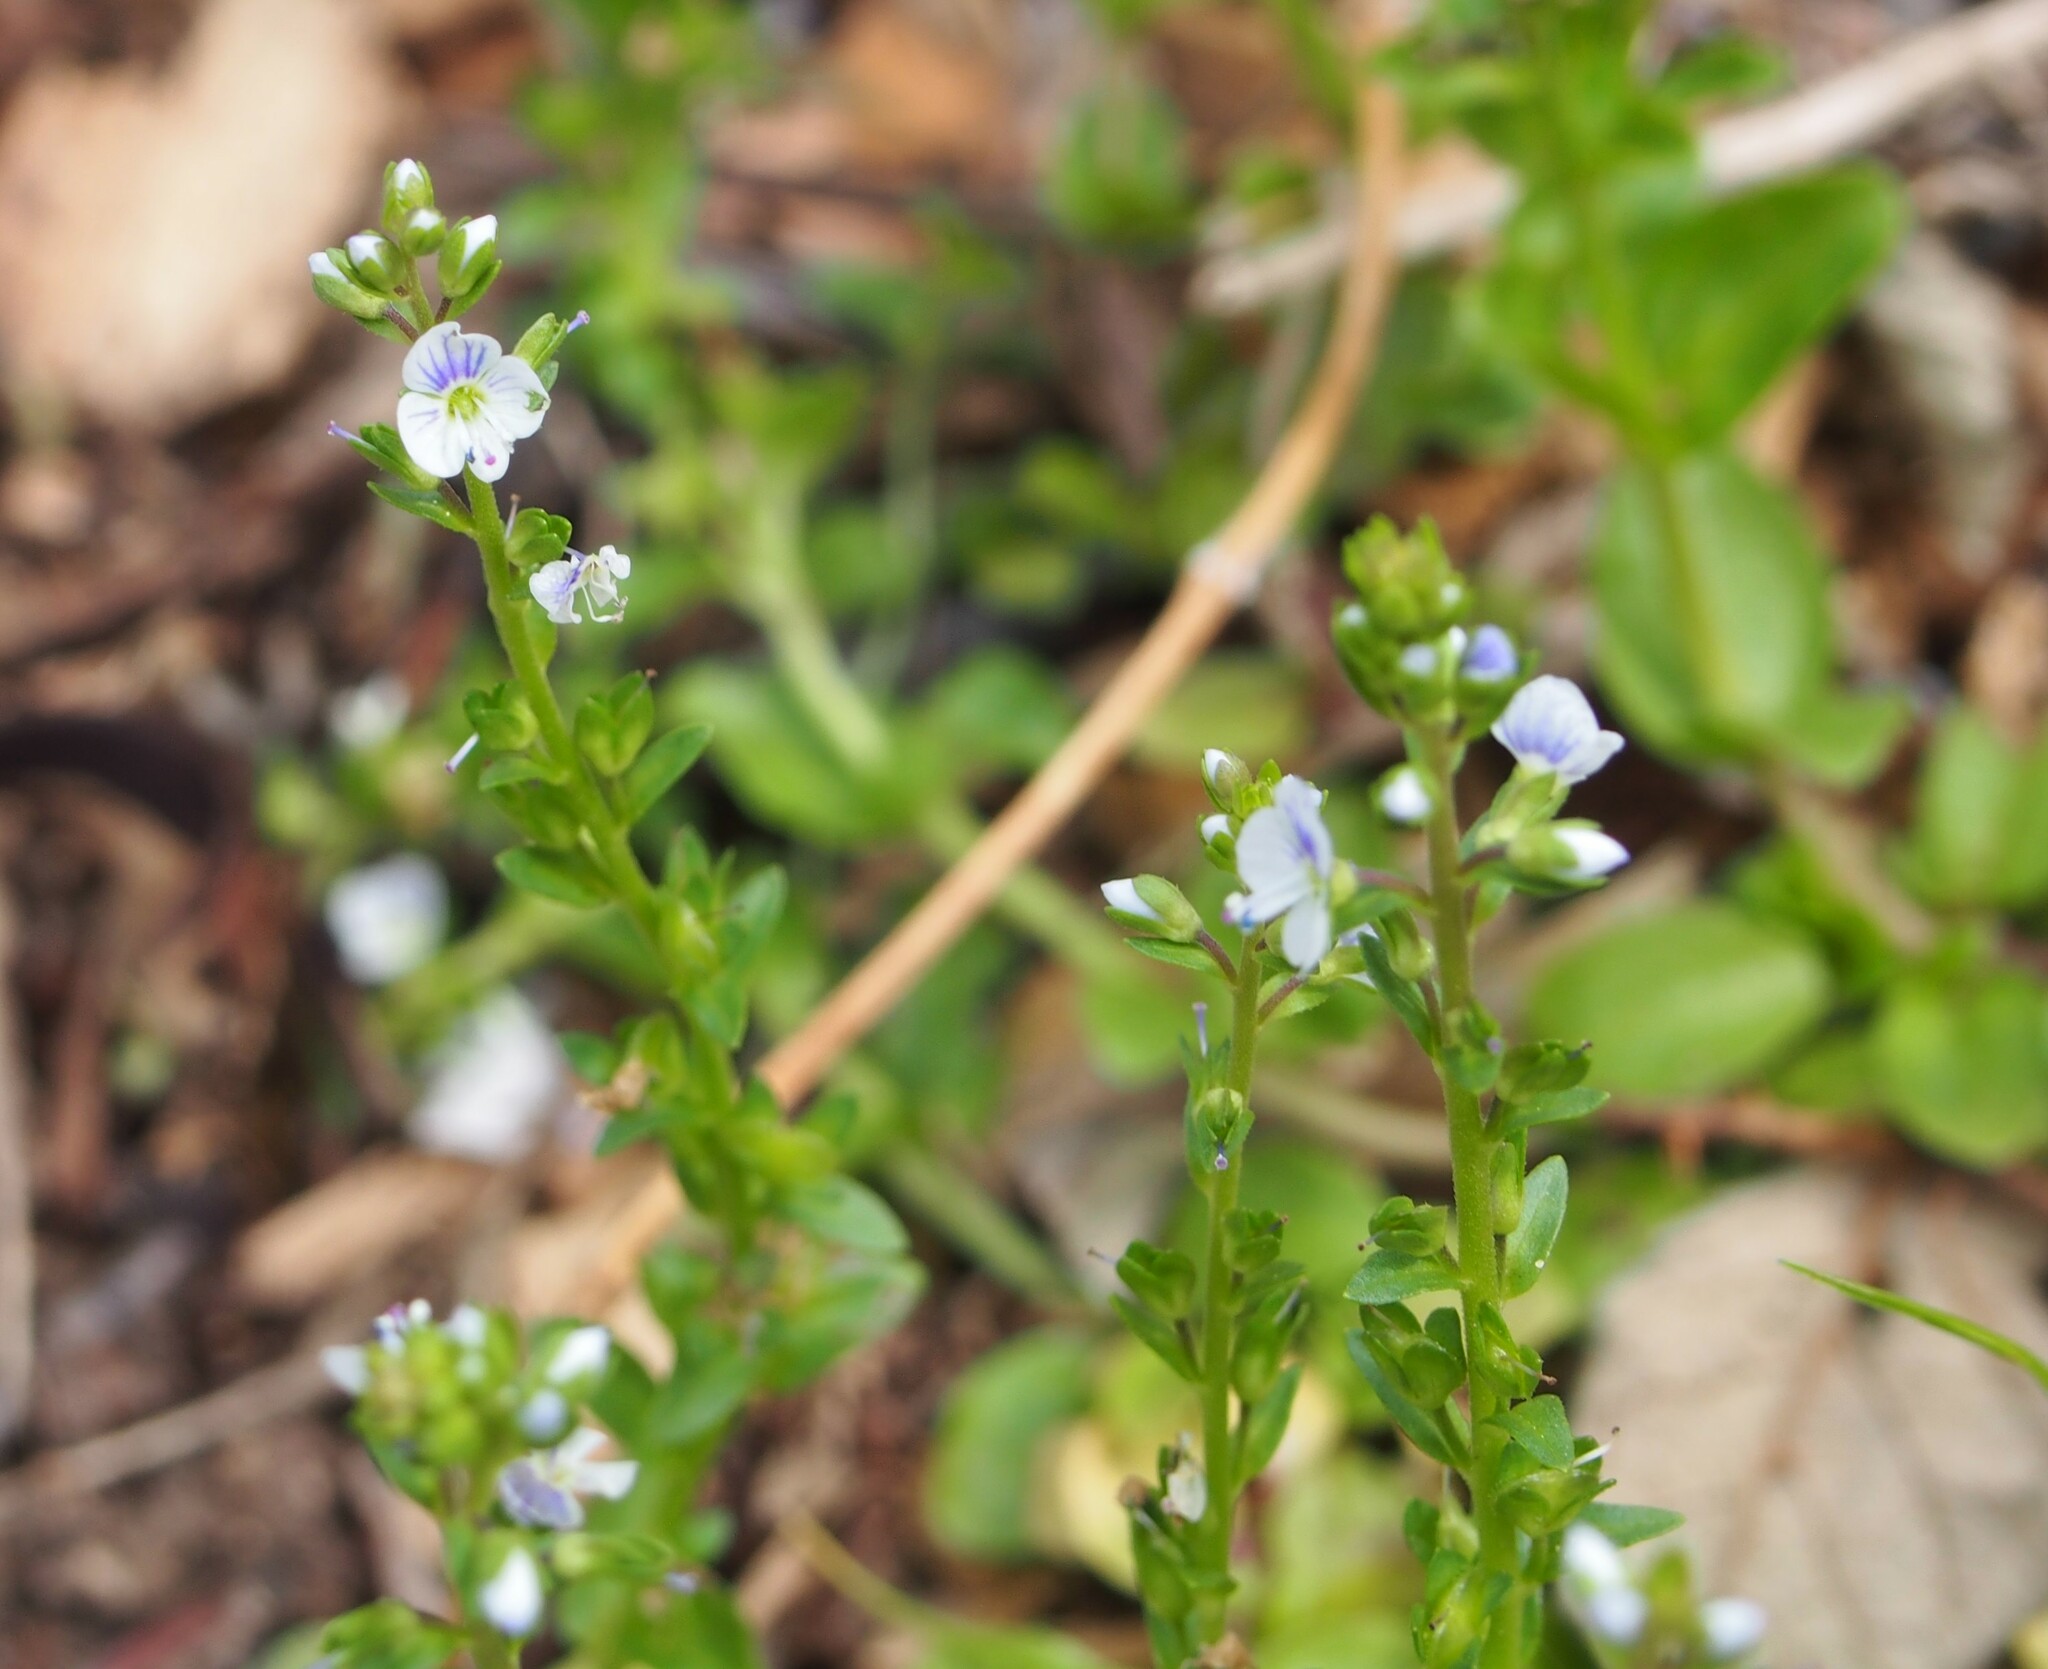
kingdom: Plantae
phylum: Tracheophyta
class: Magnoliopsida
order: Lamiales
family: Plantaginaceae
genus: Veronica
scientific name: Veronica serpyllifolia
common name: Thyme-leaved speedwell
